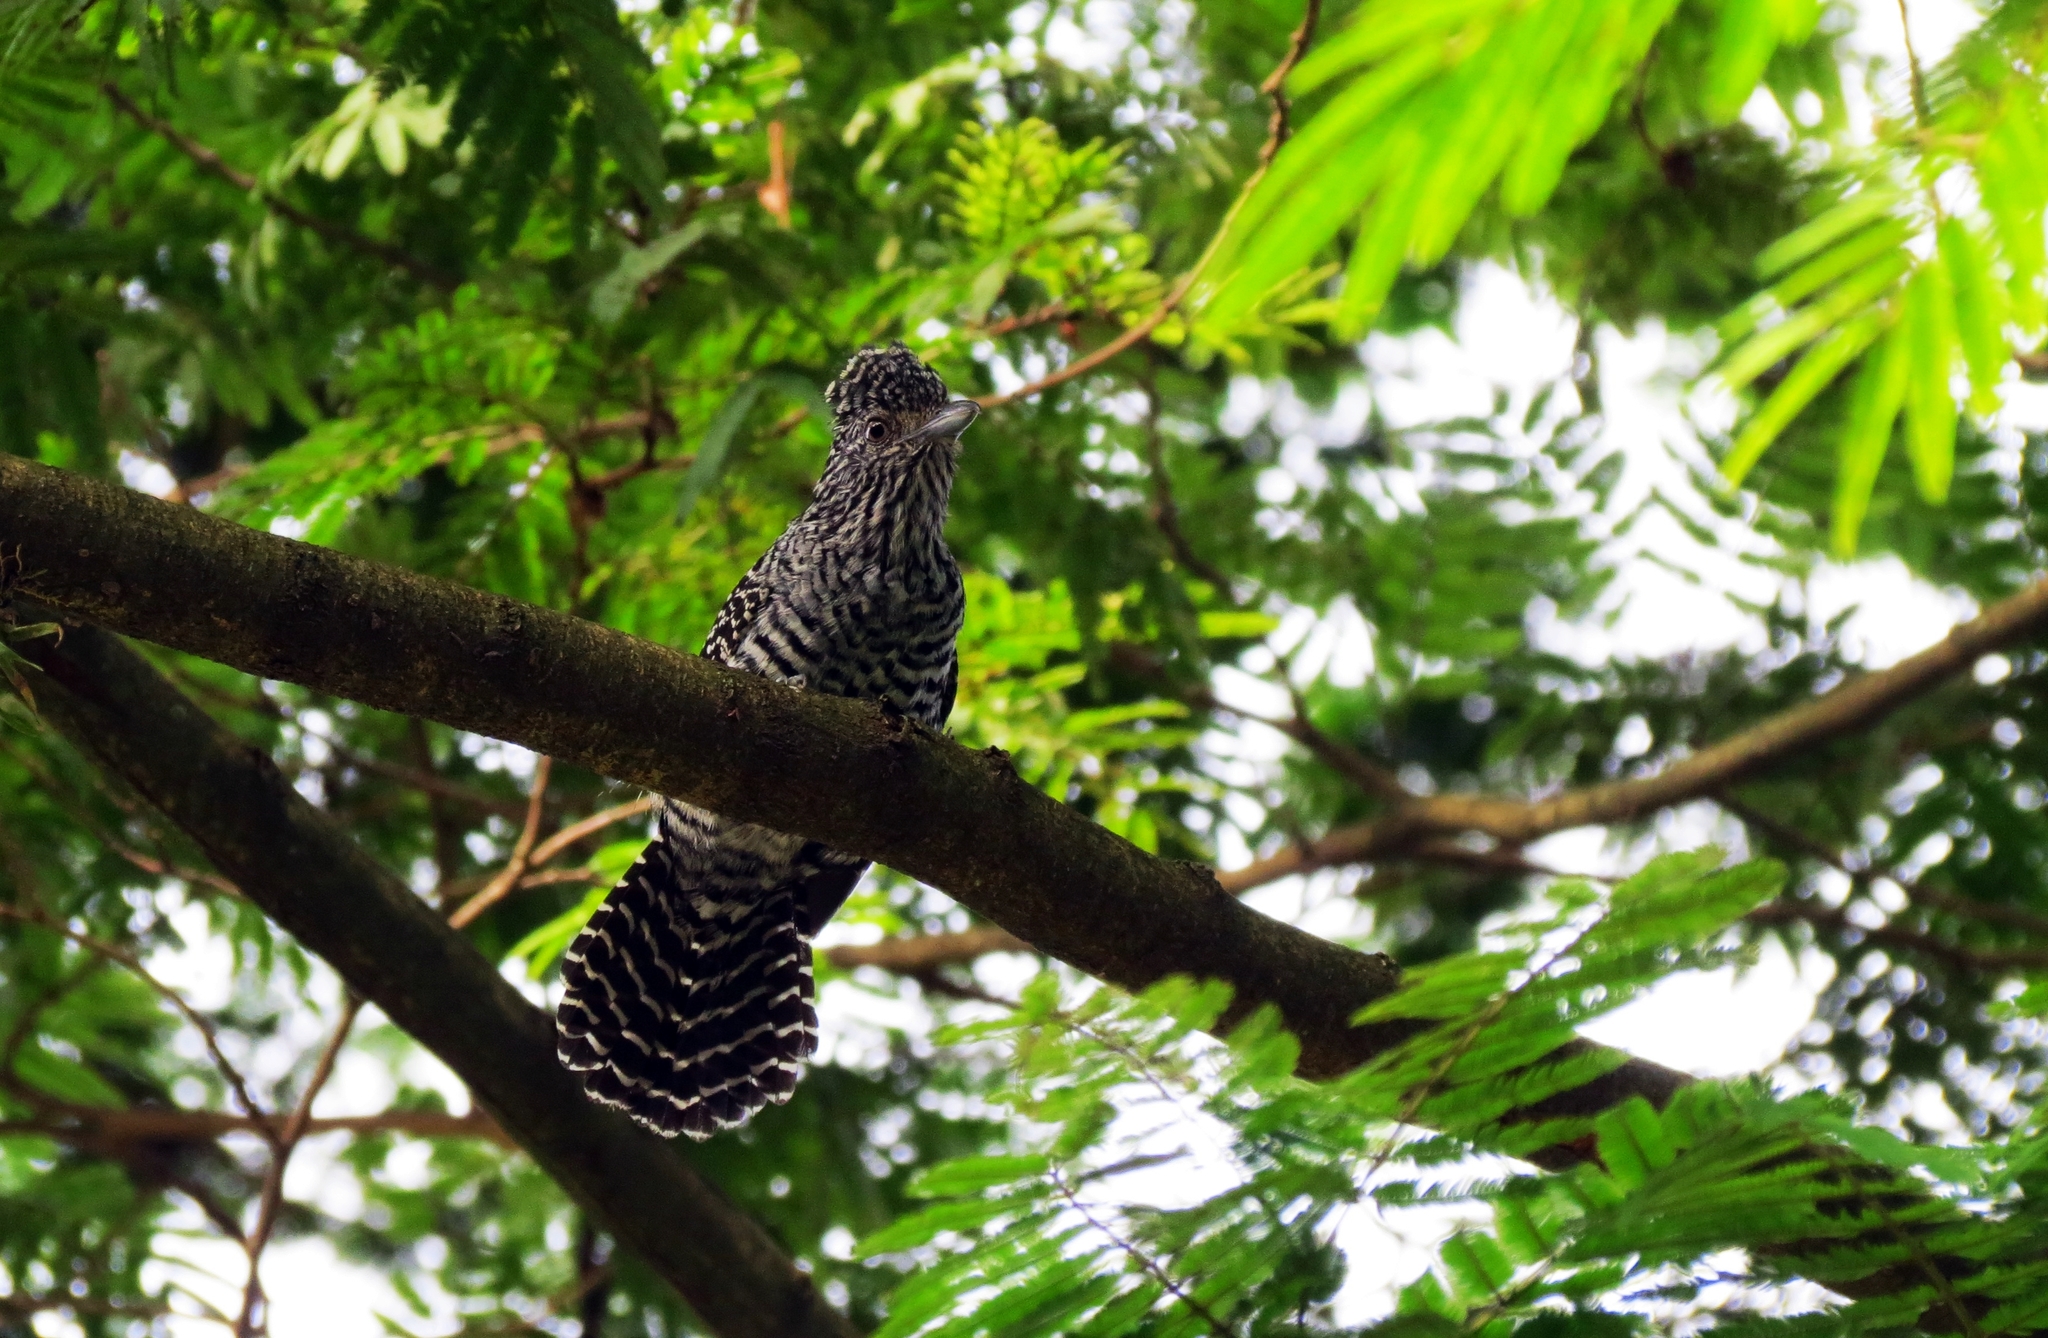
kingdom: Animalia
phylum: Chordata
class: Aves
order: Passeriformes
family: Thamnophilidae
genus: Thamnophilus
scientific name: Thamnophilus multistriatus
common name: Bar-crested antshrike
